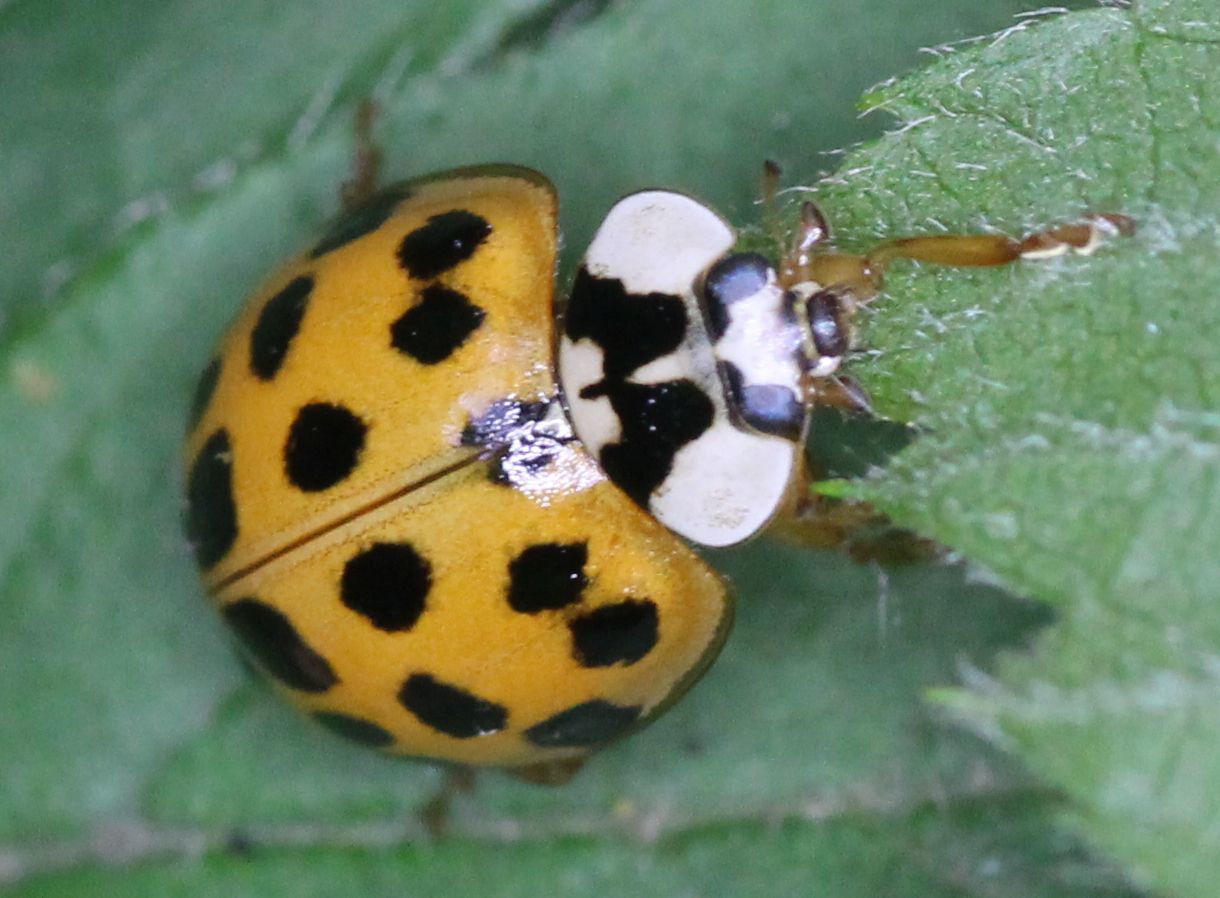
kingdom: Animalia
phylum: Arthropoda
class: Insecta
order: Coleoptera
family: Coccinellidae
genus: Harmonia
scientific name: Harmonia axyridis
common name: Harlequin ladybird
